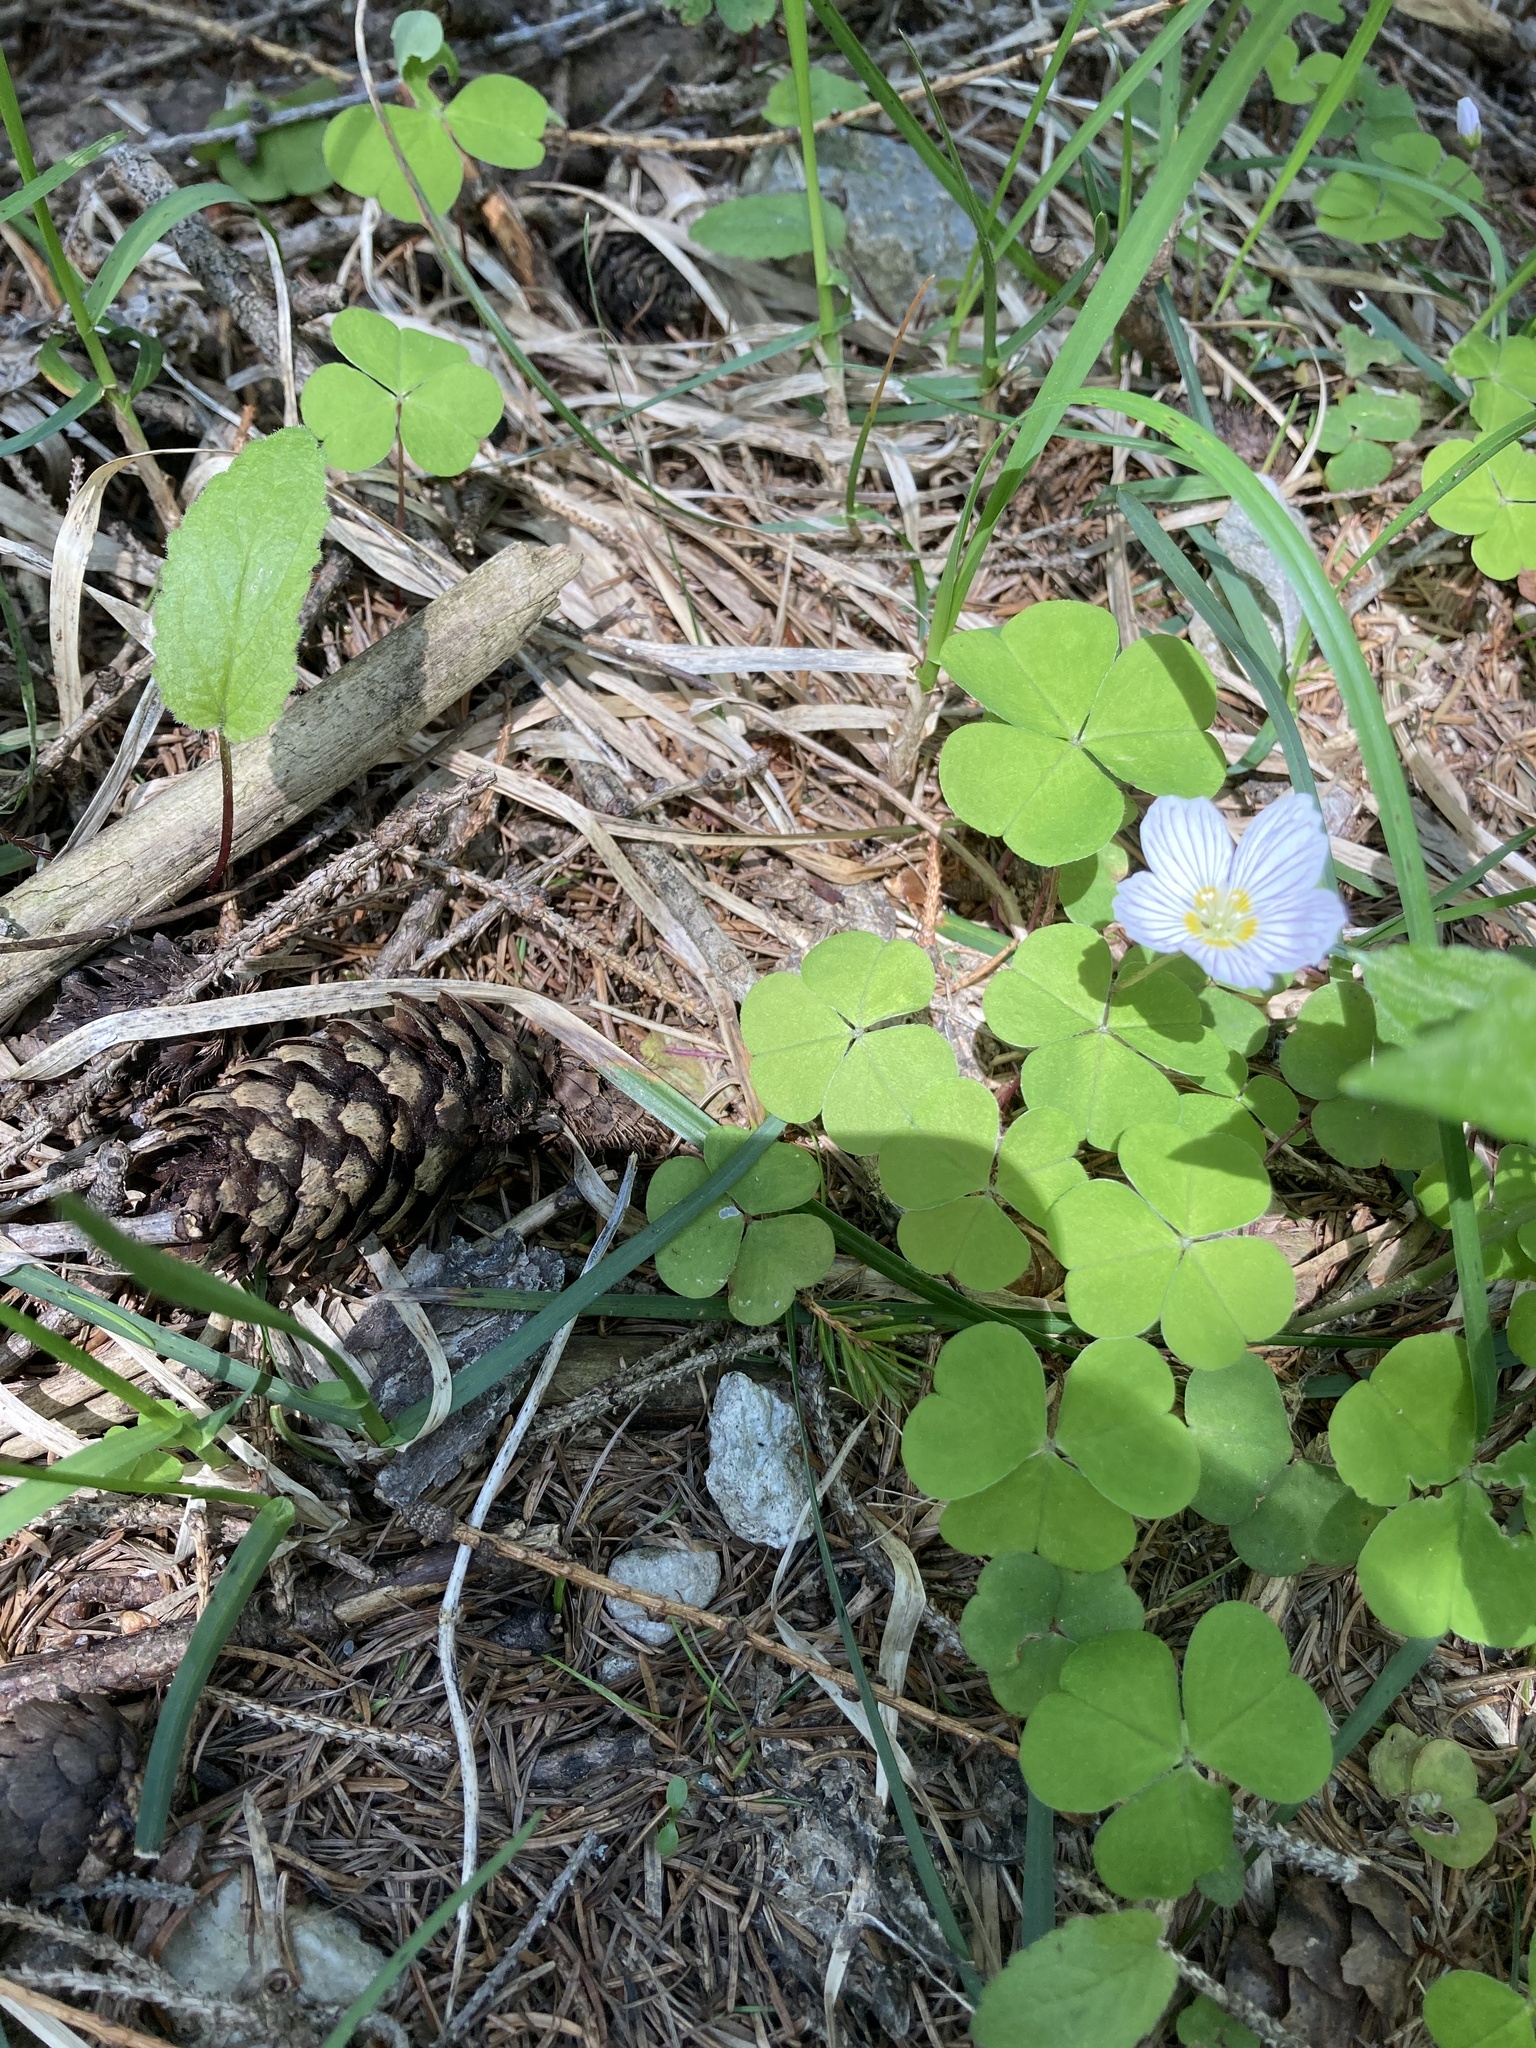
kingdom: Plantae
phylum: Tracheophyta
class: Magnoliopsida
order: Oxalidales
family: Oxalidaceae
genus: Oxalis
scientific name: Oxalis acetosella
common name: Wood-sorrel
